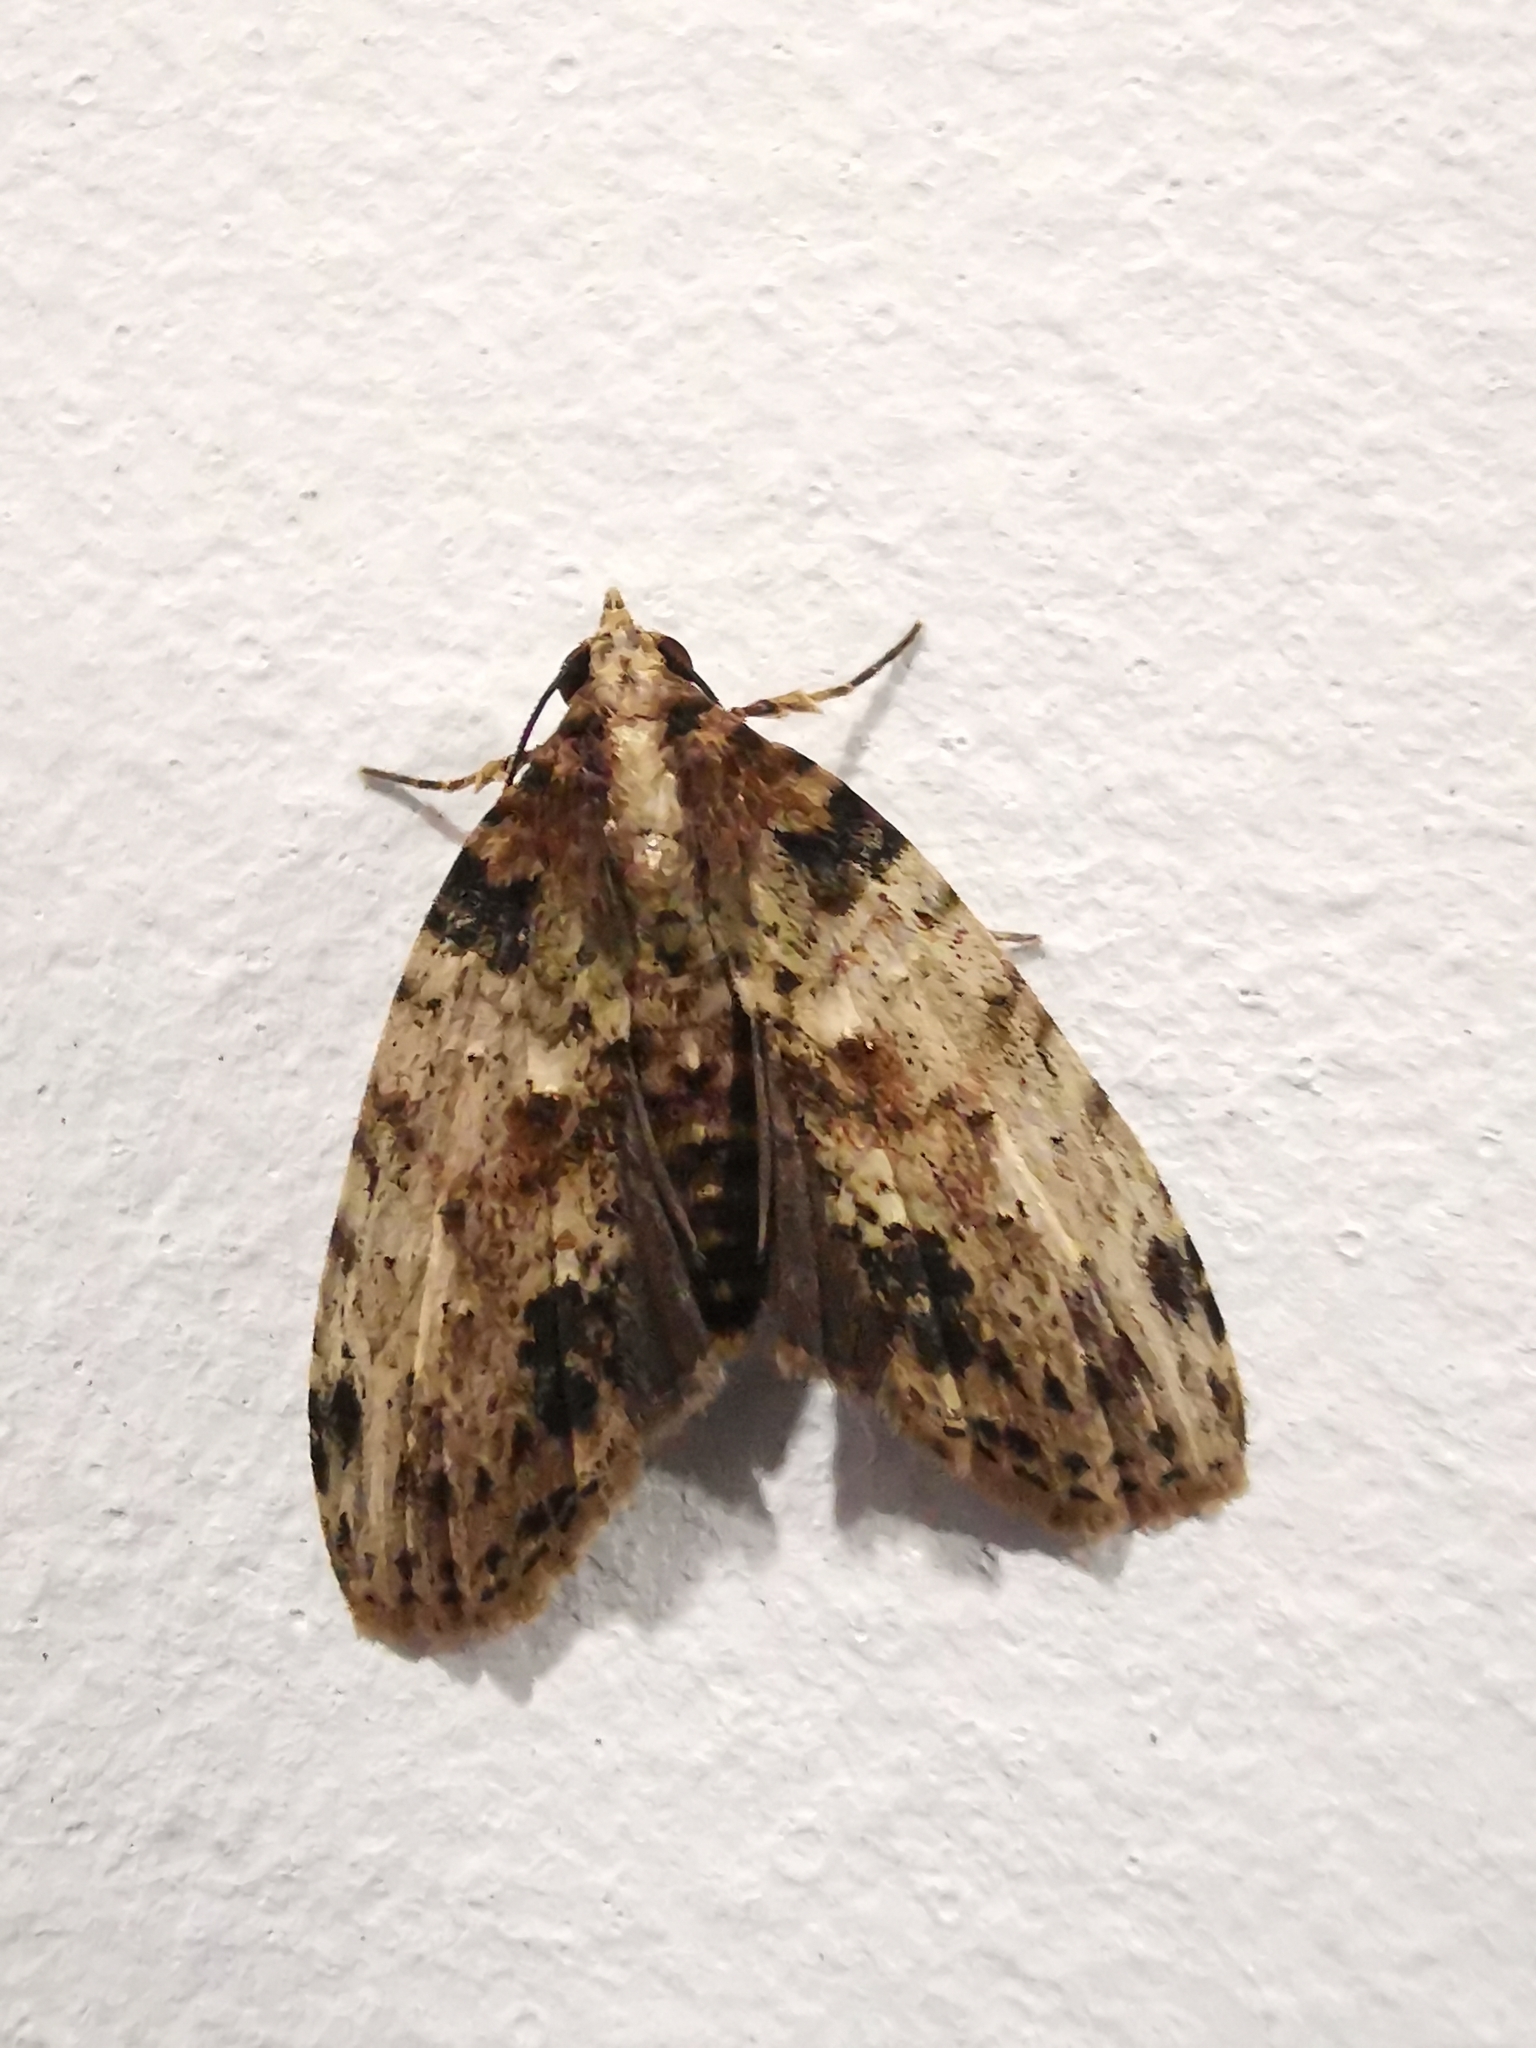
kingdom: Animalia
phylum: Arthropoda
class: Insecta
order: Lepidoptera
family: Euteliidae
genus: Sigmuncus
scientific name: Sigmuncus arcuata
